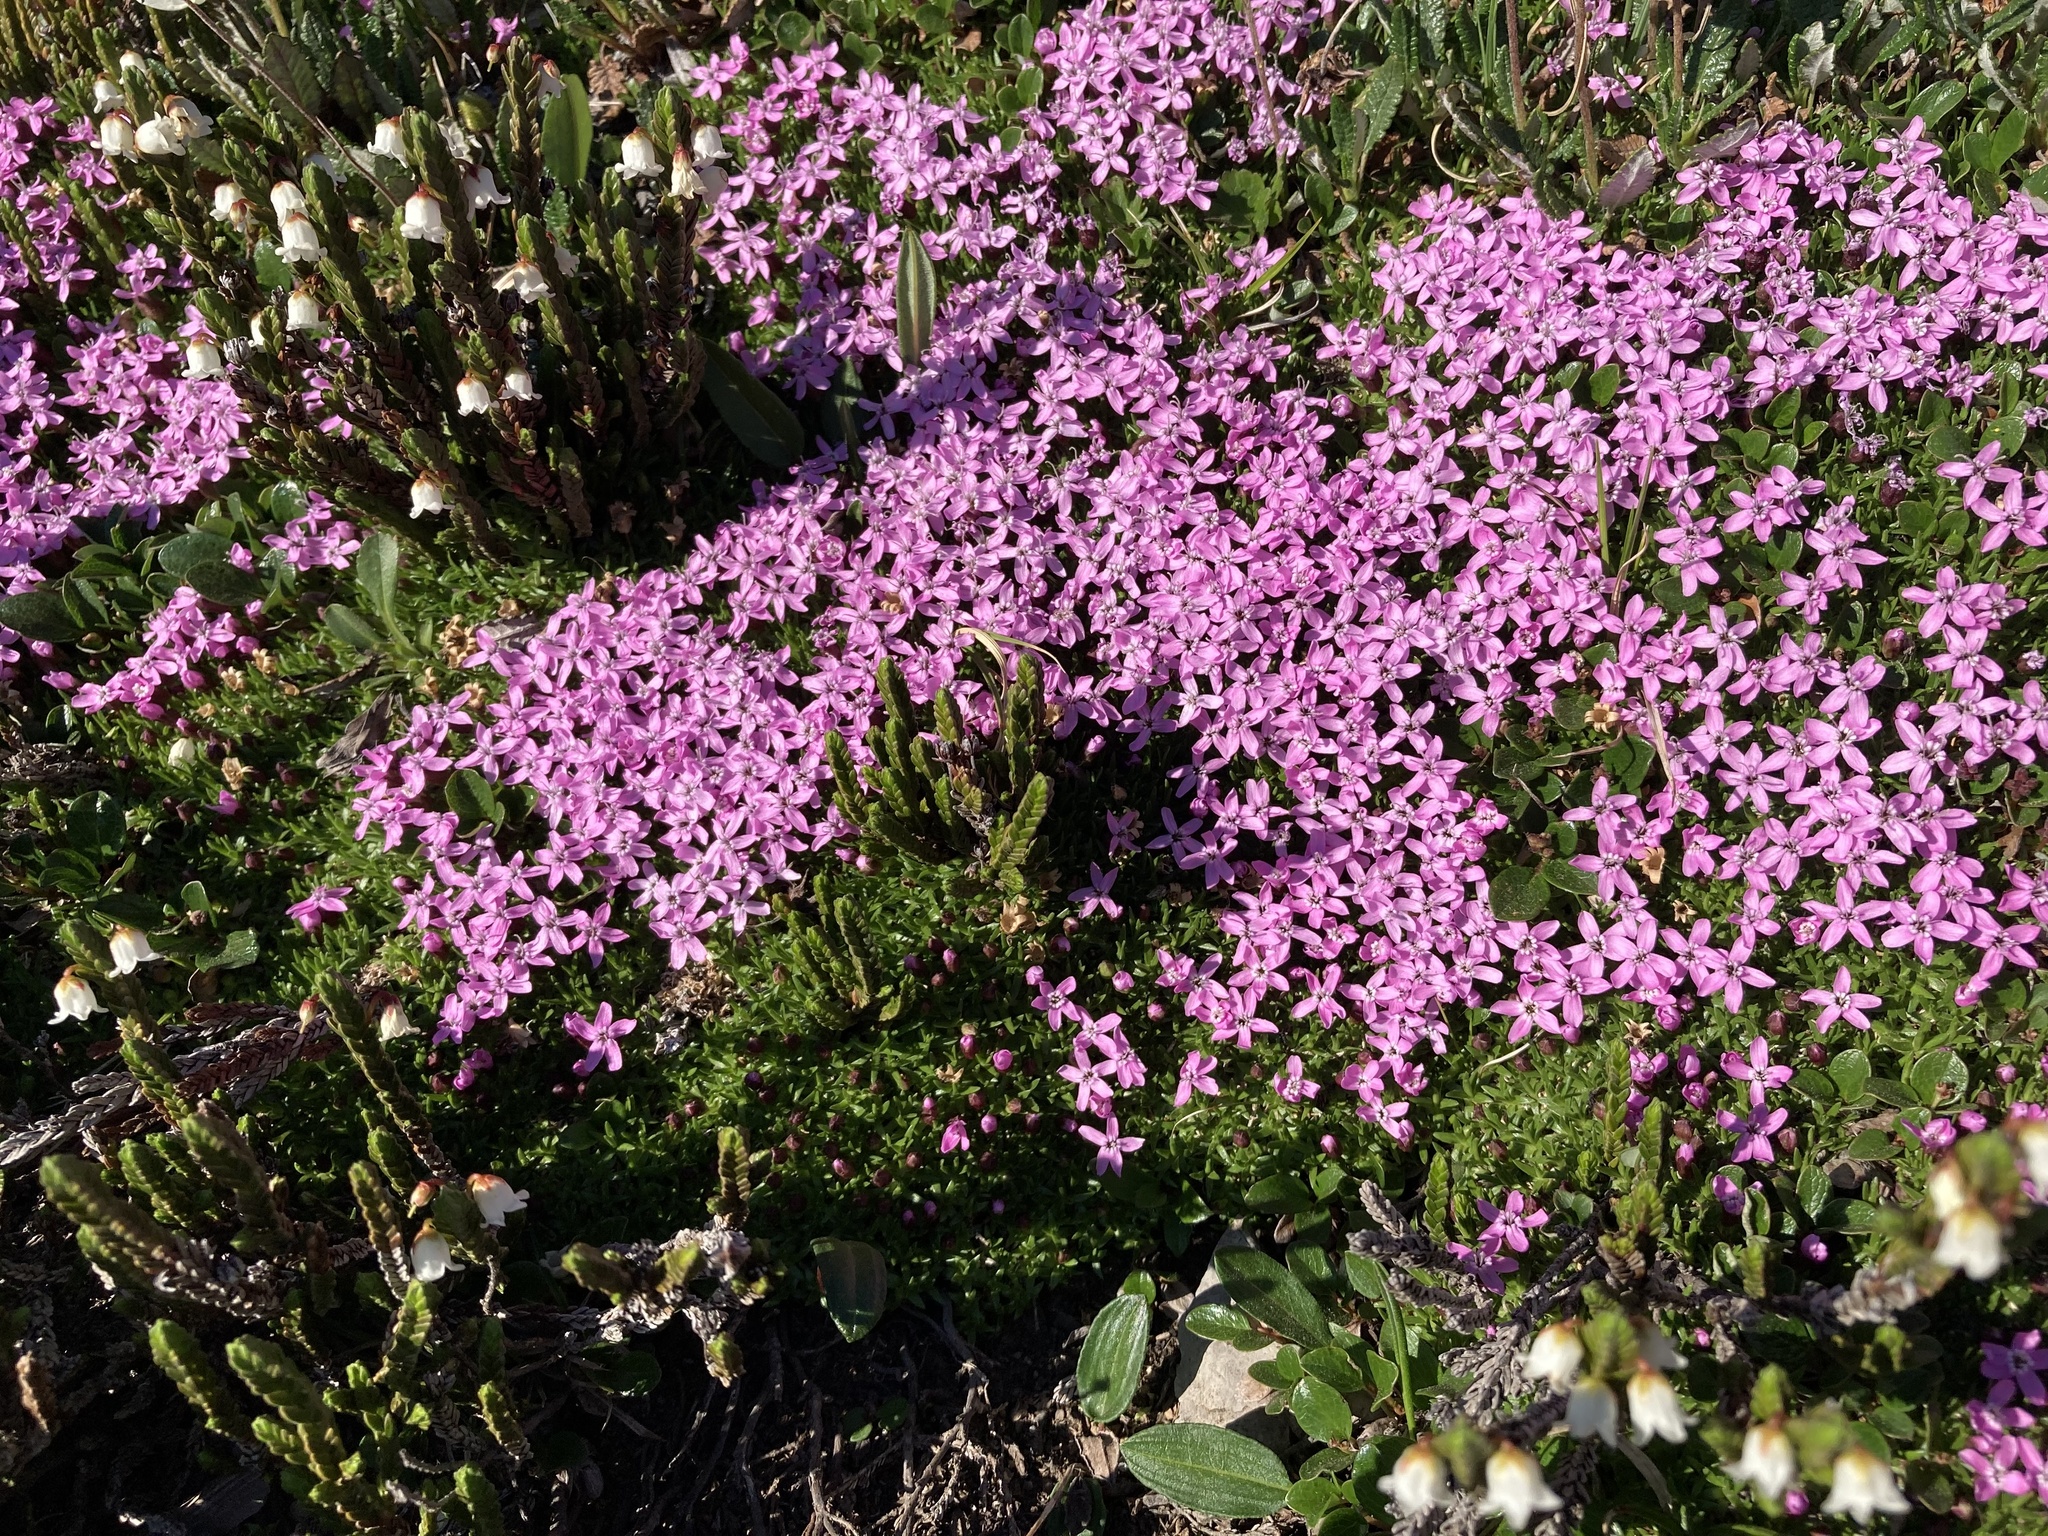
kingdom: Plantae
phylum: Tracheophyta
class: Magnoliopsida
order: Caryophyllales
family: Caryophyllaceae
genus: Silene
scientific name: Silene acaulis
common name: Moss campion
